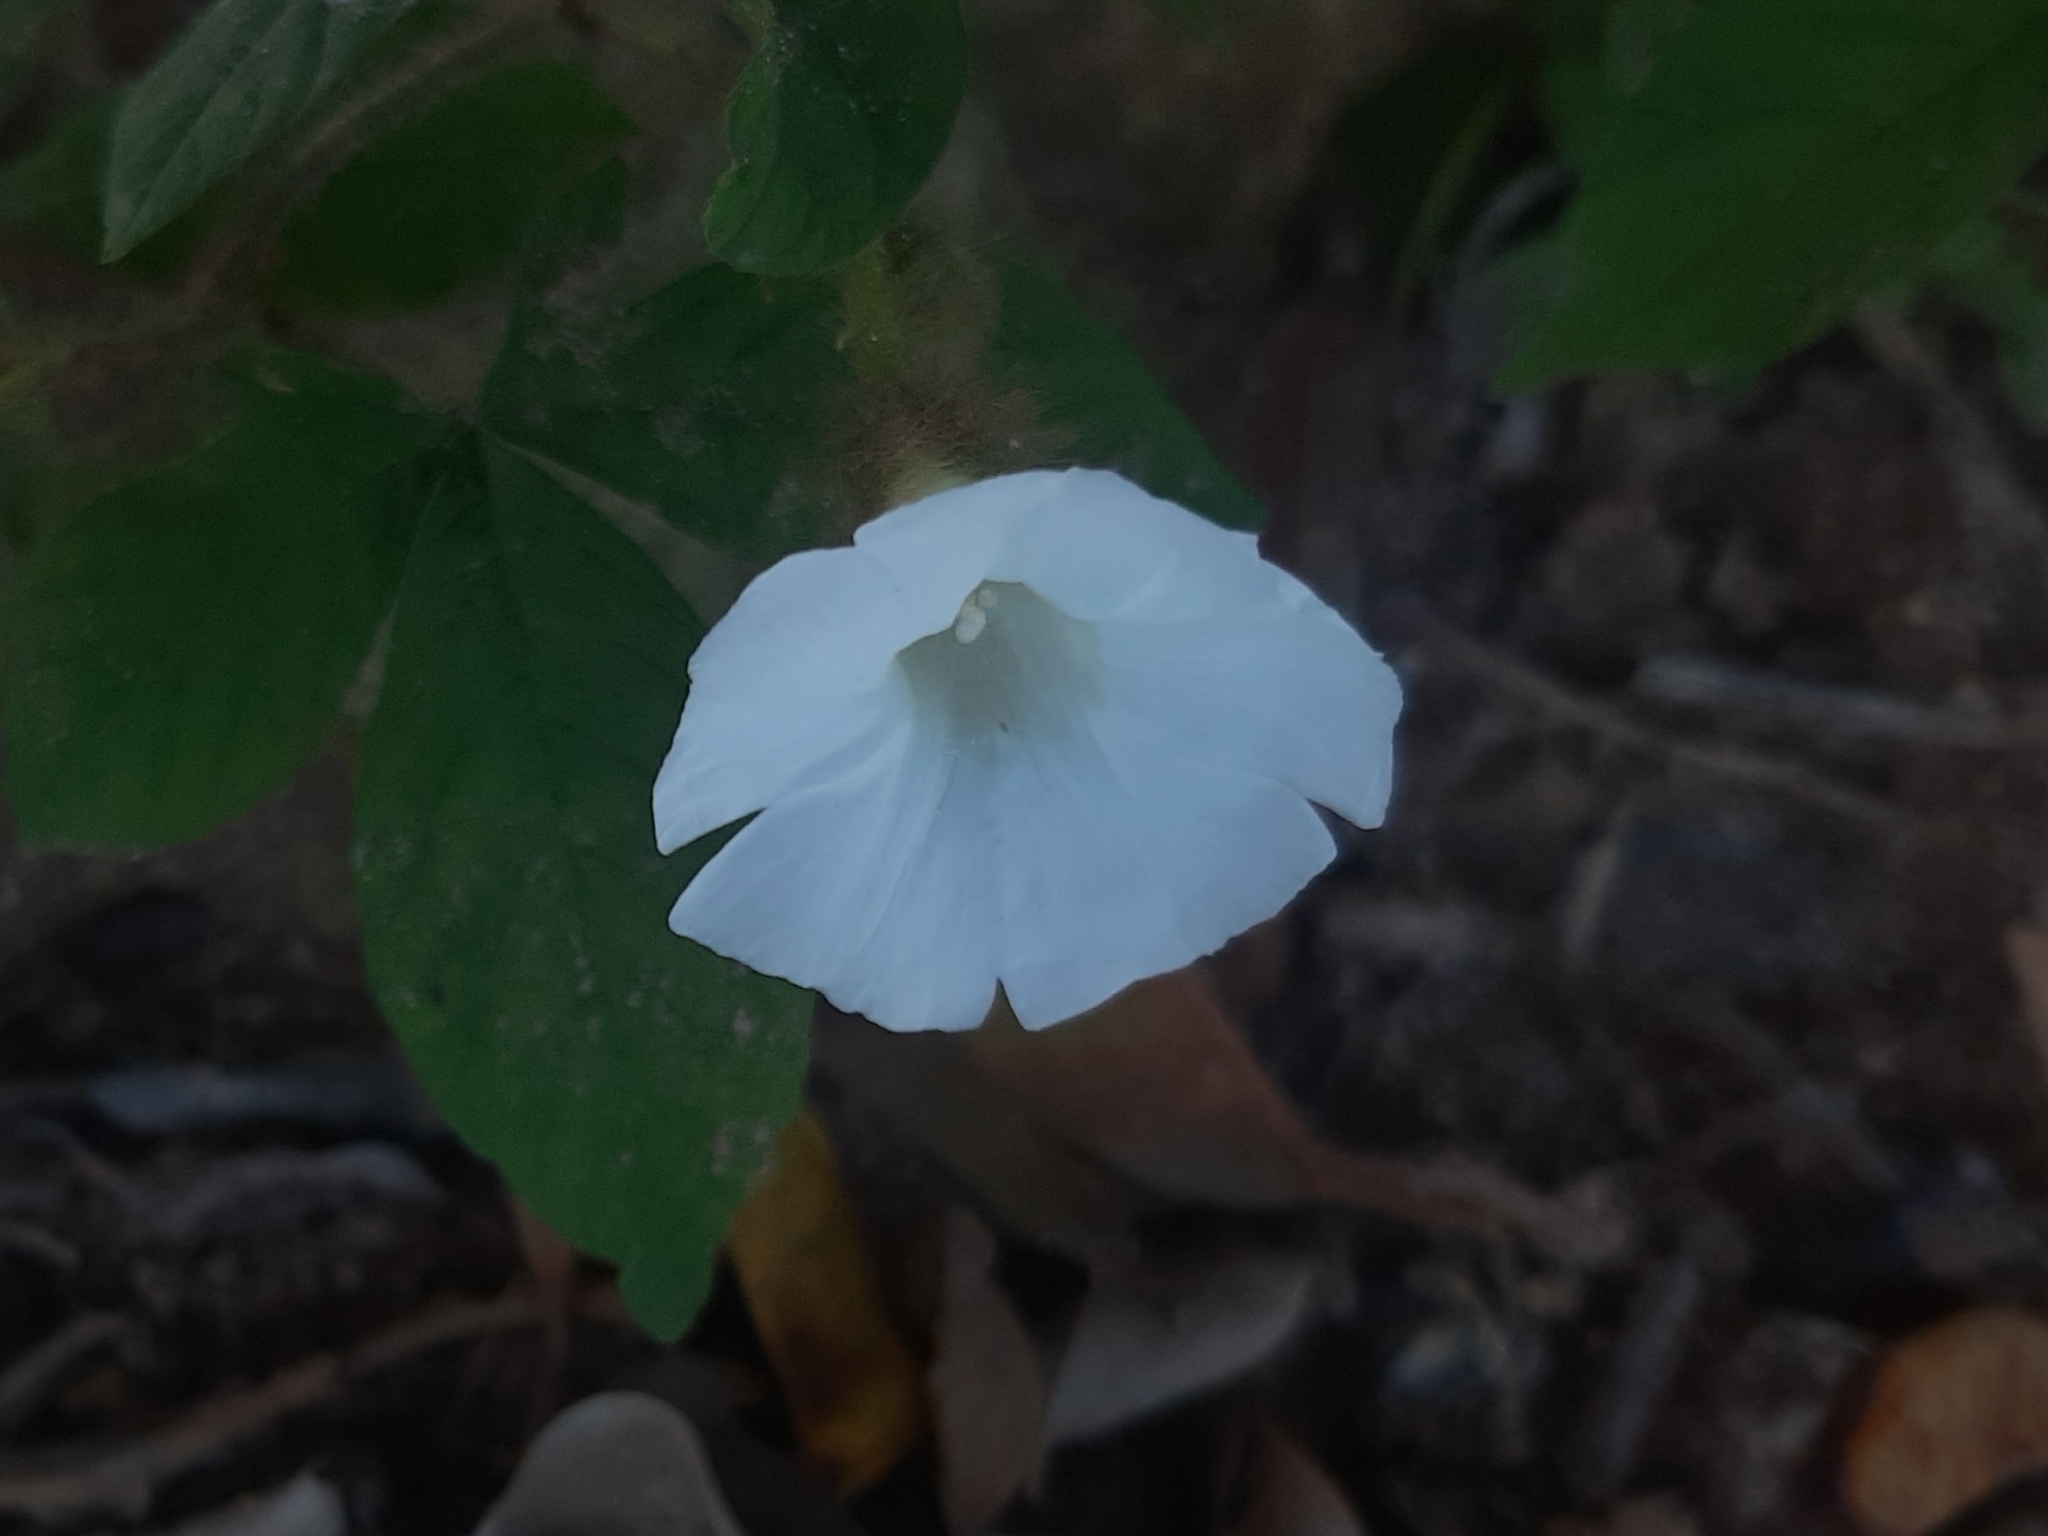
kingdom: Plantae
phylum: Tracheophyta
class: Magnoliopsida
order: Solanales
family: Convolvulaceae
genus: Distimake
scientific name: Distimake aegyptius
